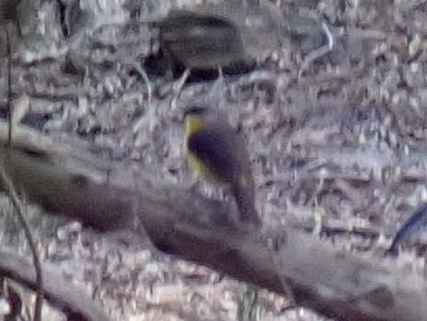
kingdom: Animalia
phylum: Chordata
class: Aves
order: Passeriformes
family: Petroicidae
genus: Eopsaltria
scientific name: Eopsaltria australis
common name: Eastern yellow robin
